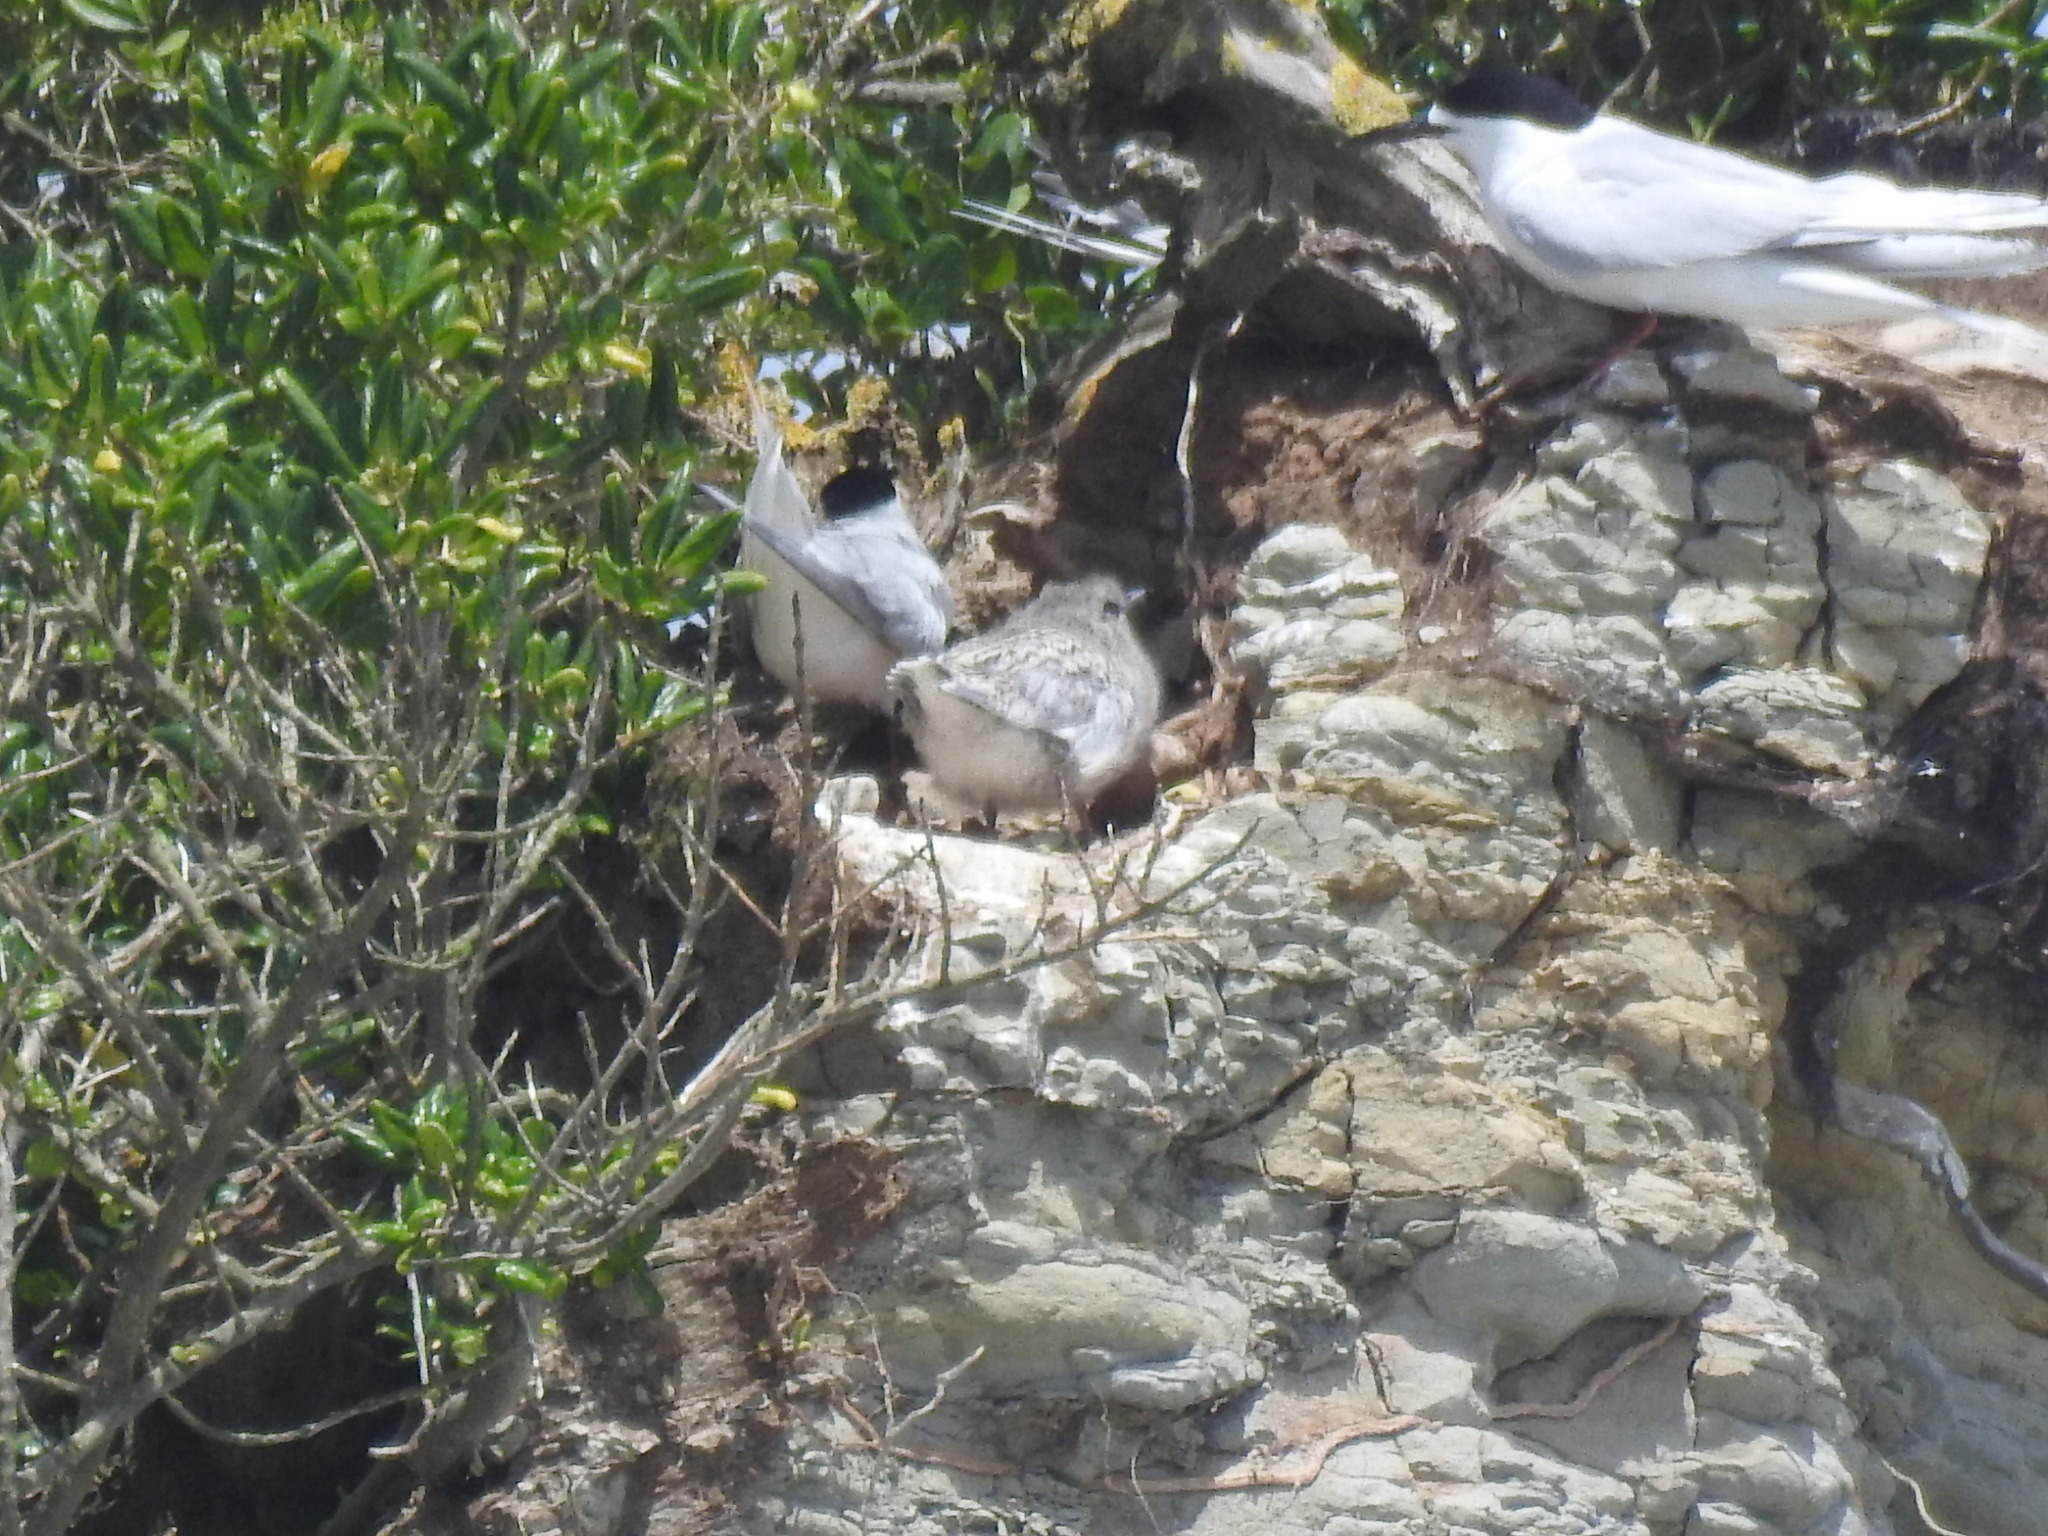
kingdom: Animalia
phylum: Chordata
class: Aves
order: Charadriiformes
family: Laridae
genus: Sterna
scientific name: Sterna striata
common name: White-fronted tern
